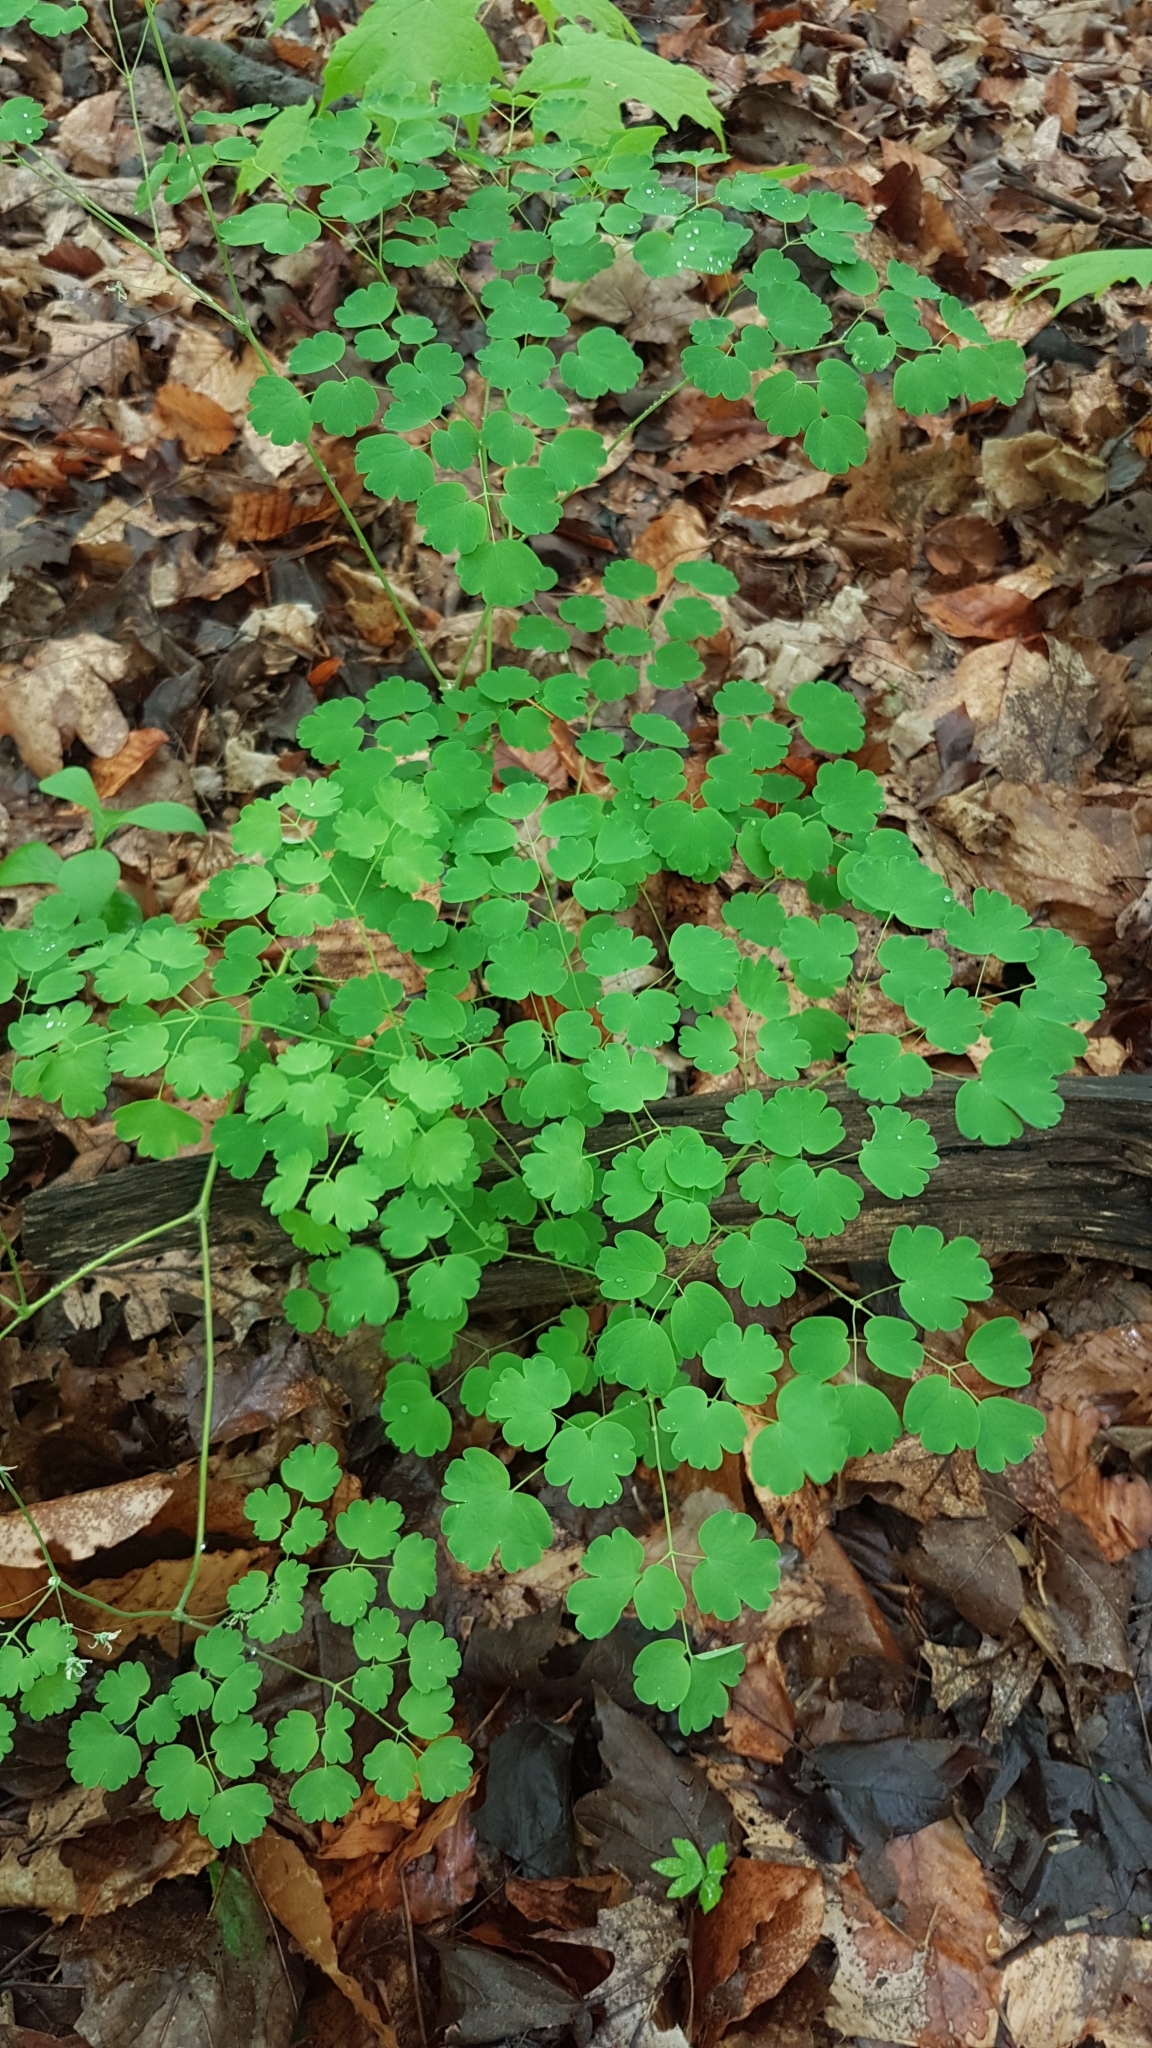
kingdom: Plantae
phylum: Tracheophyta
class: Magnoliopsida
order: Ranunculales
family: Ranunculaceae
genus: Thalictrum
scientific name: Thalictrum dioicum
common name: Early meadow-rue
